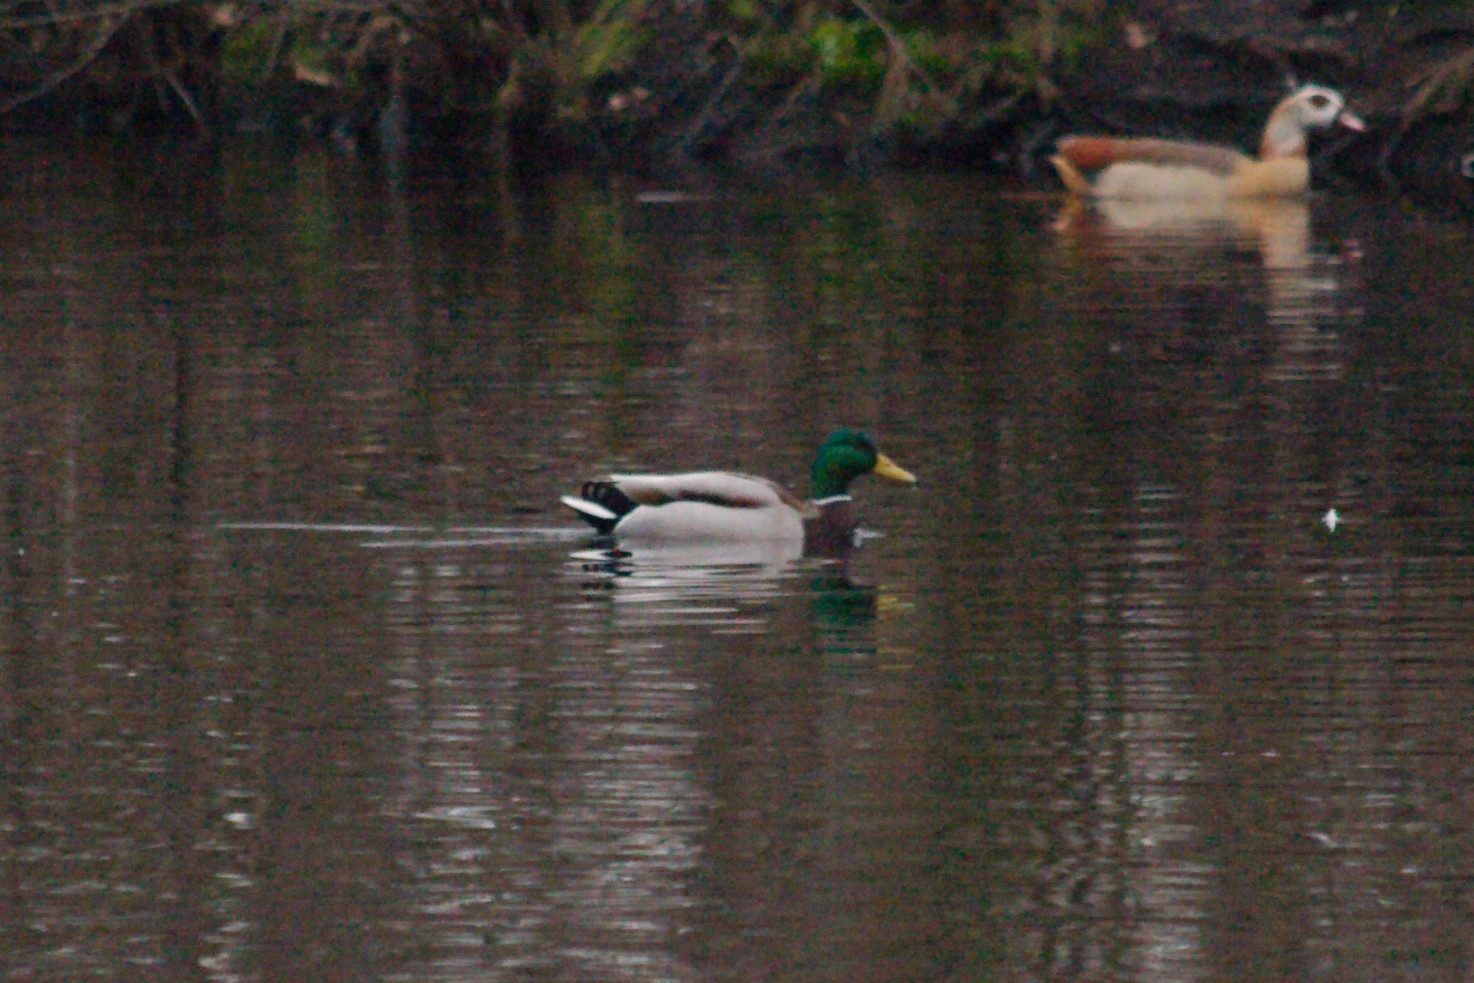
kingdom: Animalia
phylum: Chordata
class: Aves
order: Anseriformes
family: Anatidae
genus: Anas
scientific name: Anas platyrhynchos
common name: Mallard
